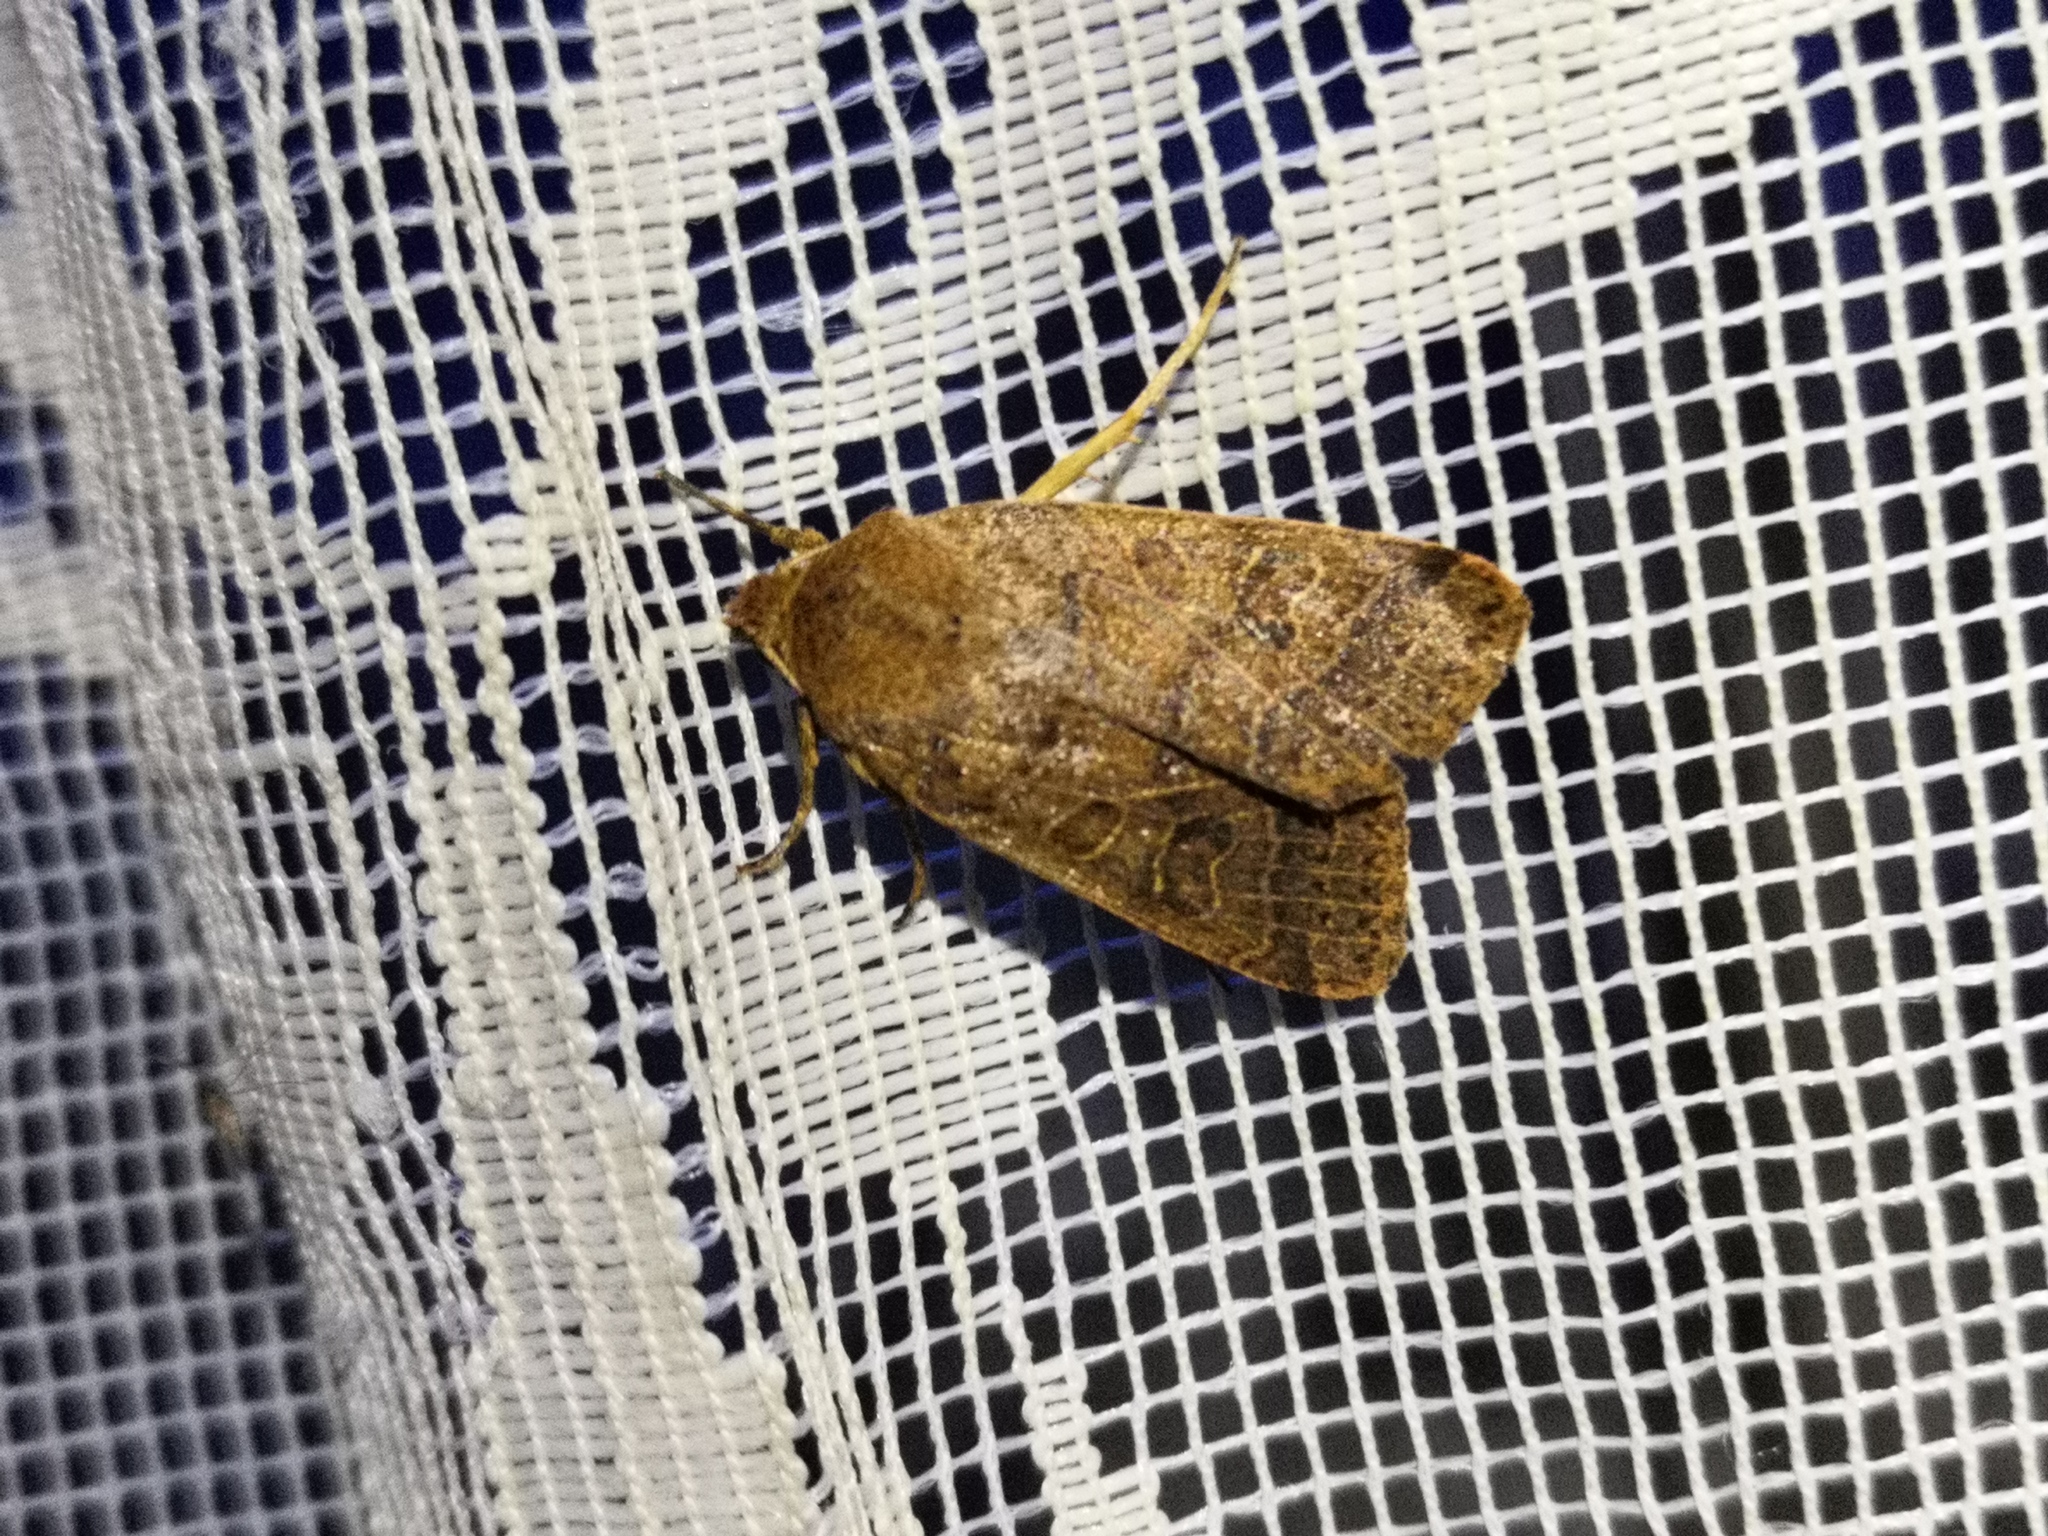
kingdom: Animalia
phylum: Arthropoda
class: Insecta
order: Lepidoptera
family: Noctuidae
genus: Agrochola
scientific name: Agrochola nitida
